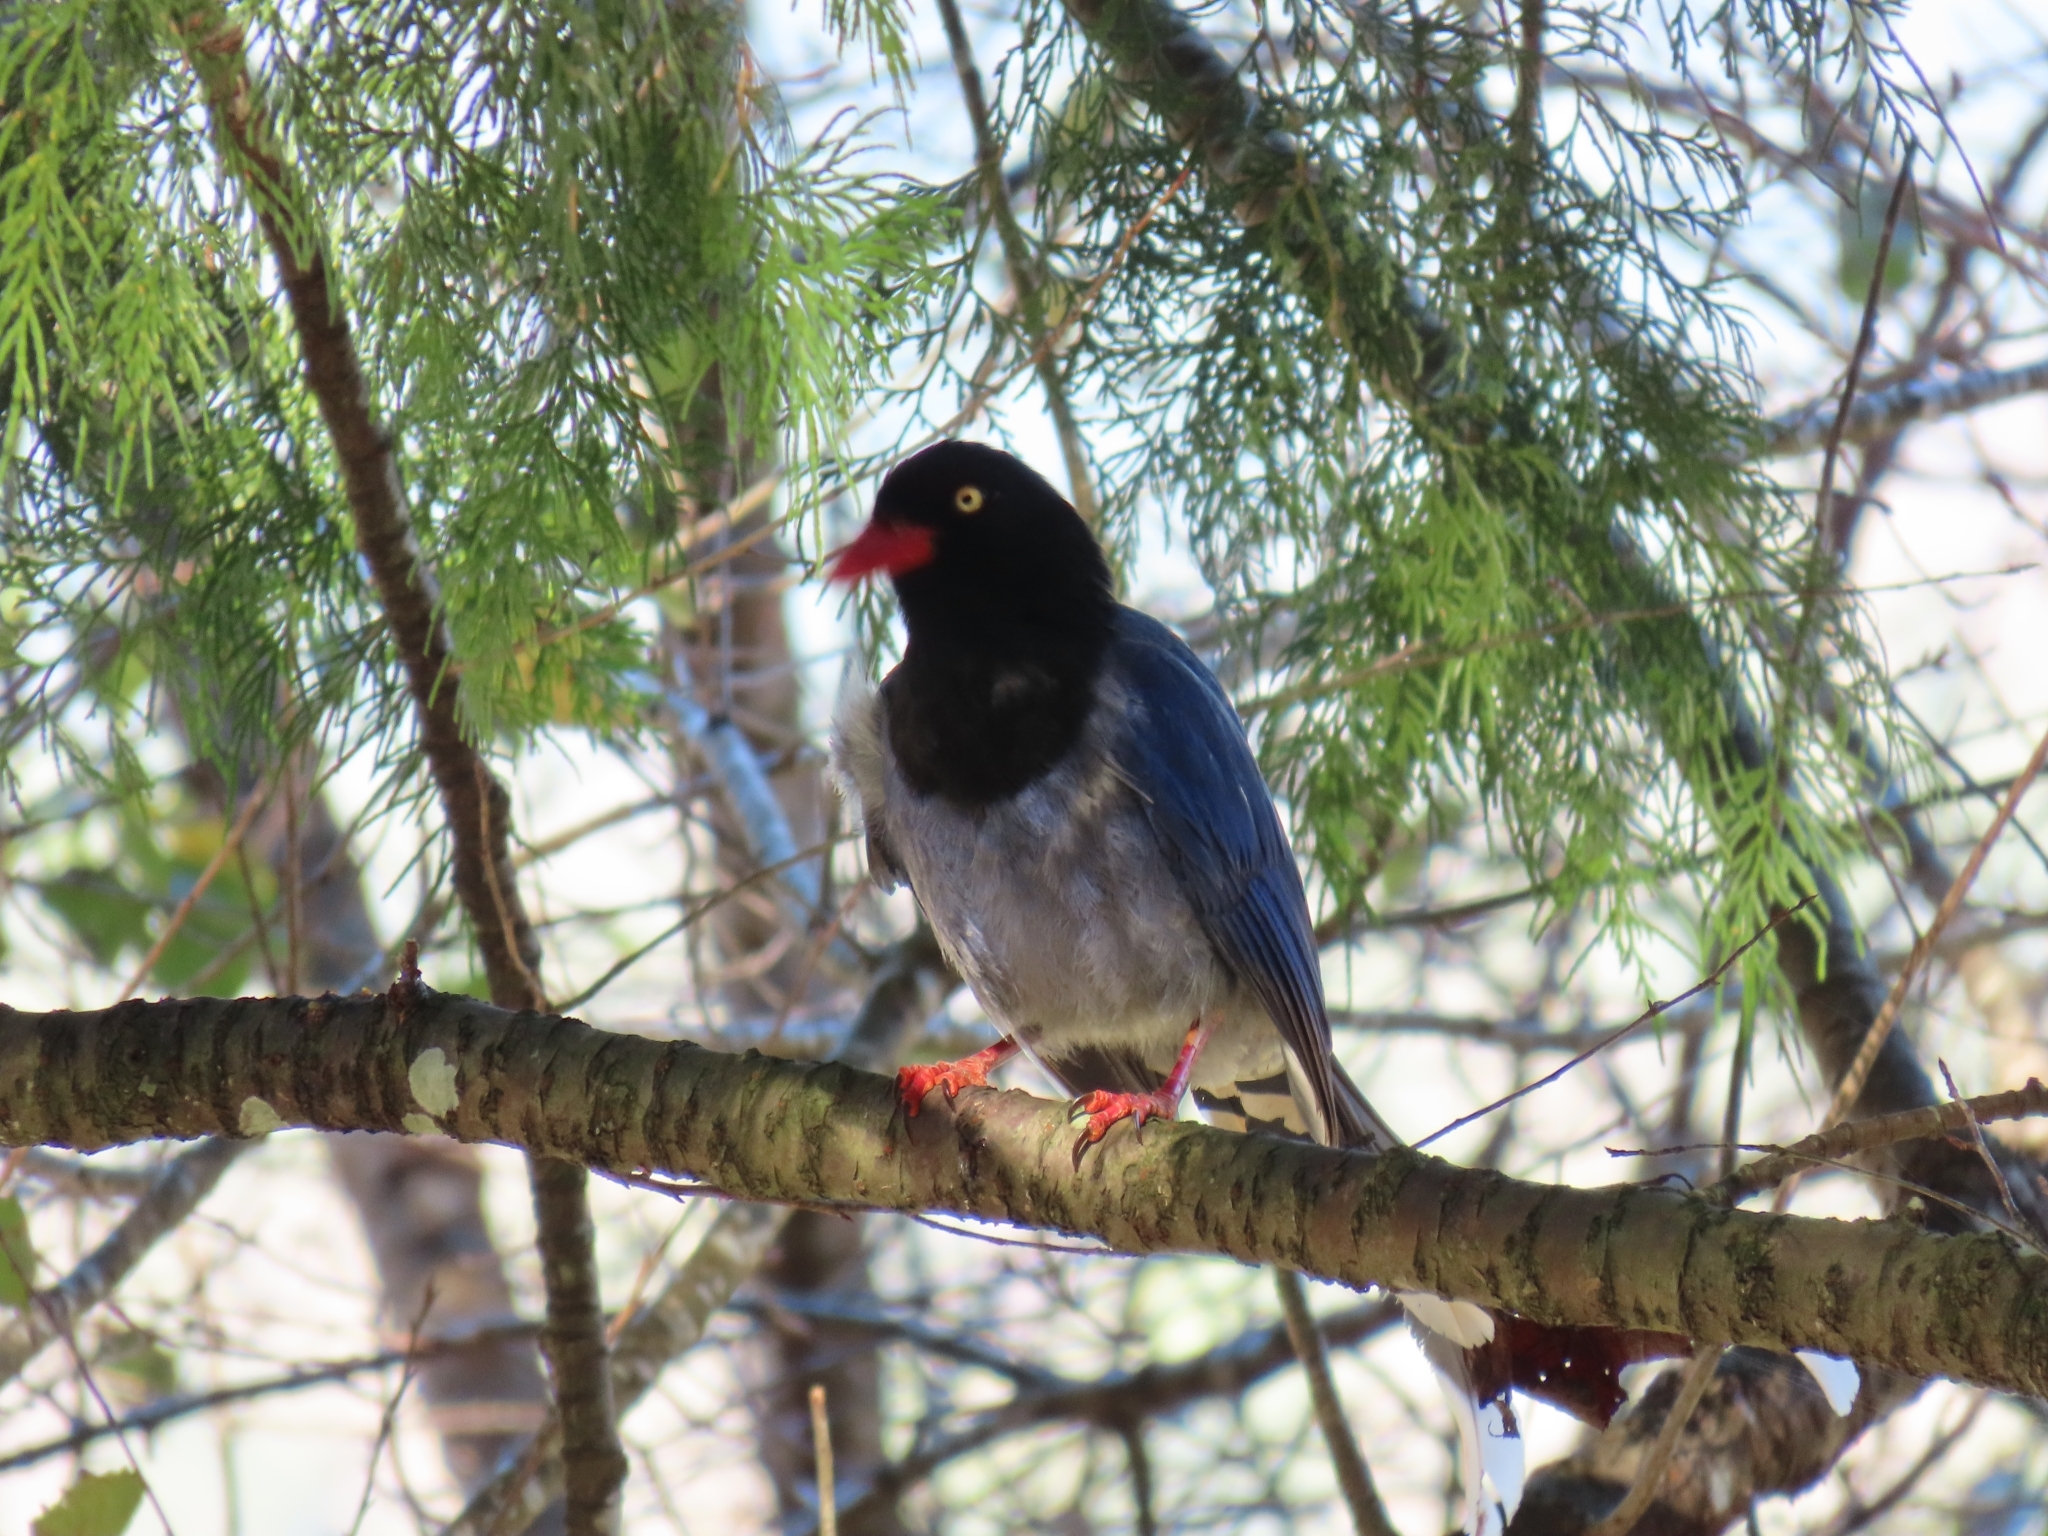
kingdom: Animalia
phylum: Chordata
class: Aves
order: Passeriformes
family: Corvidae
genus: Urocissa
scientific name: Urocissa caerulea
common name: Taiwan blue magpie
